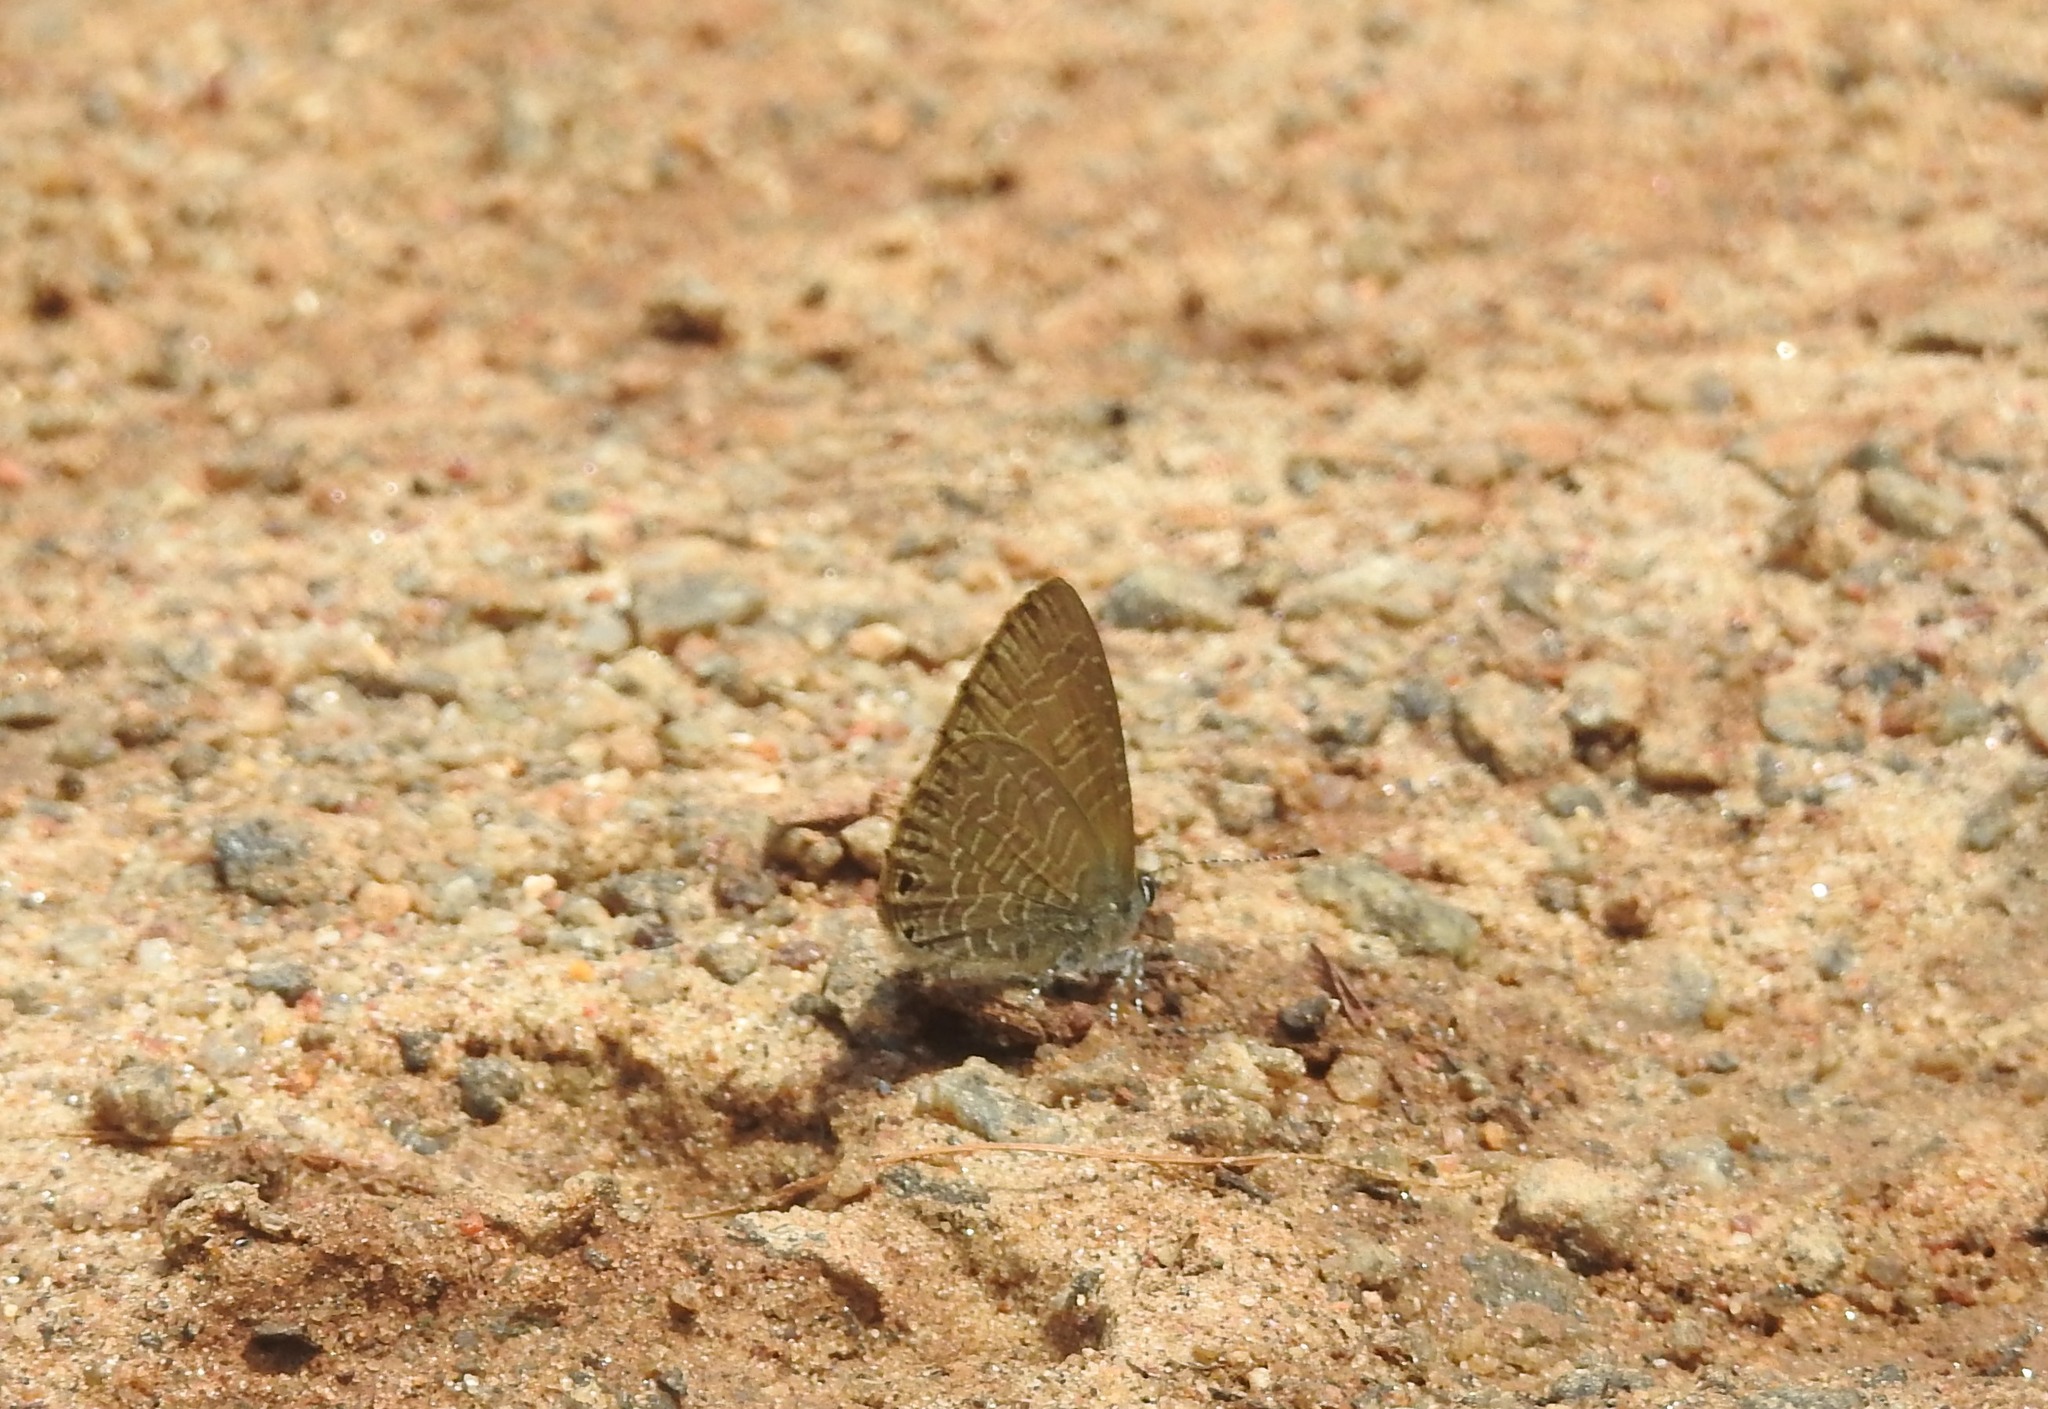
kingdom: Animalia
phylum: Arthropoda
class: Insecta
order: Lepidoptera
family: Lycaenidae
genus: Petrelaea
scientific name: Petrelaea dana
